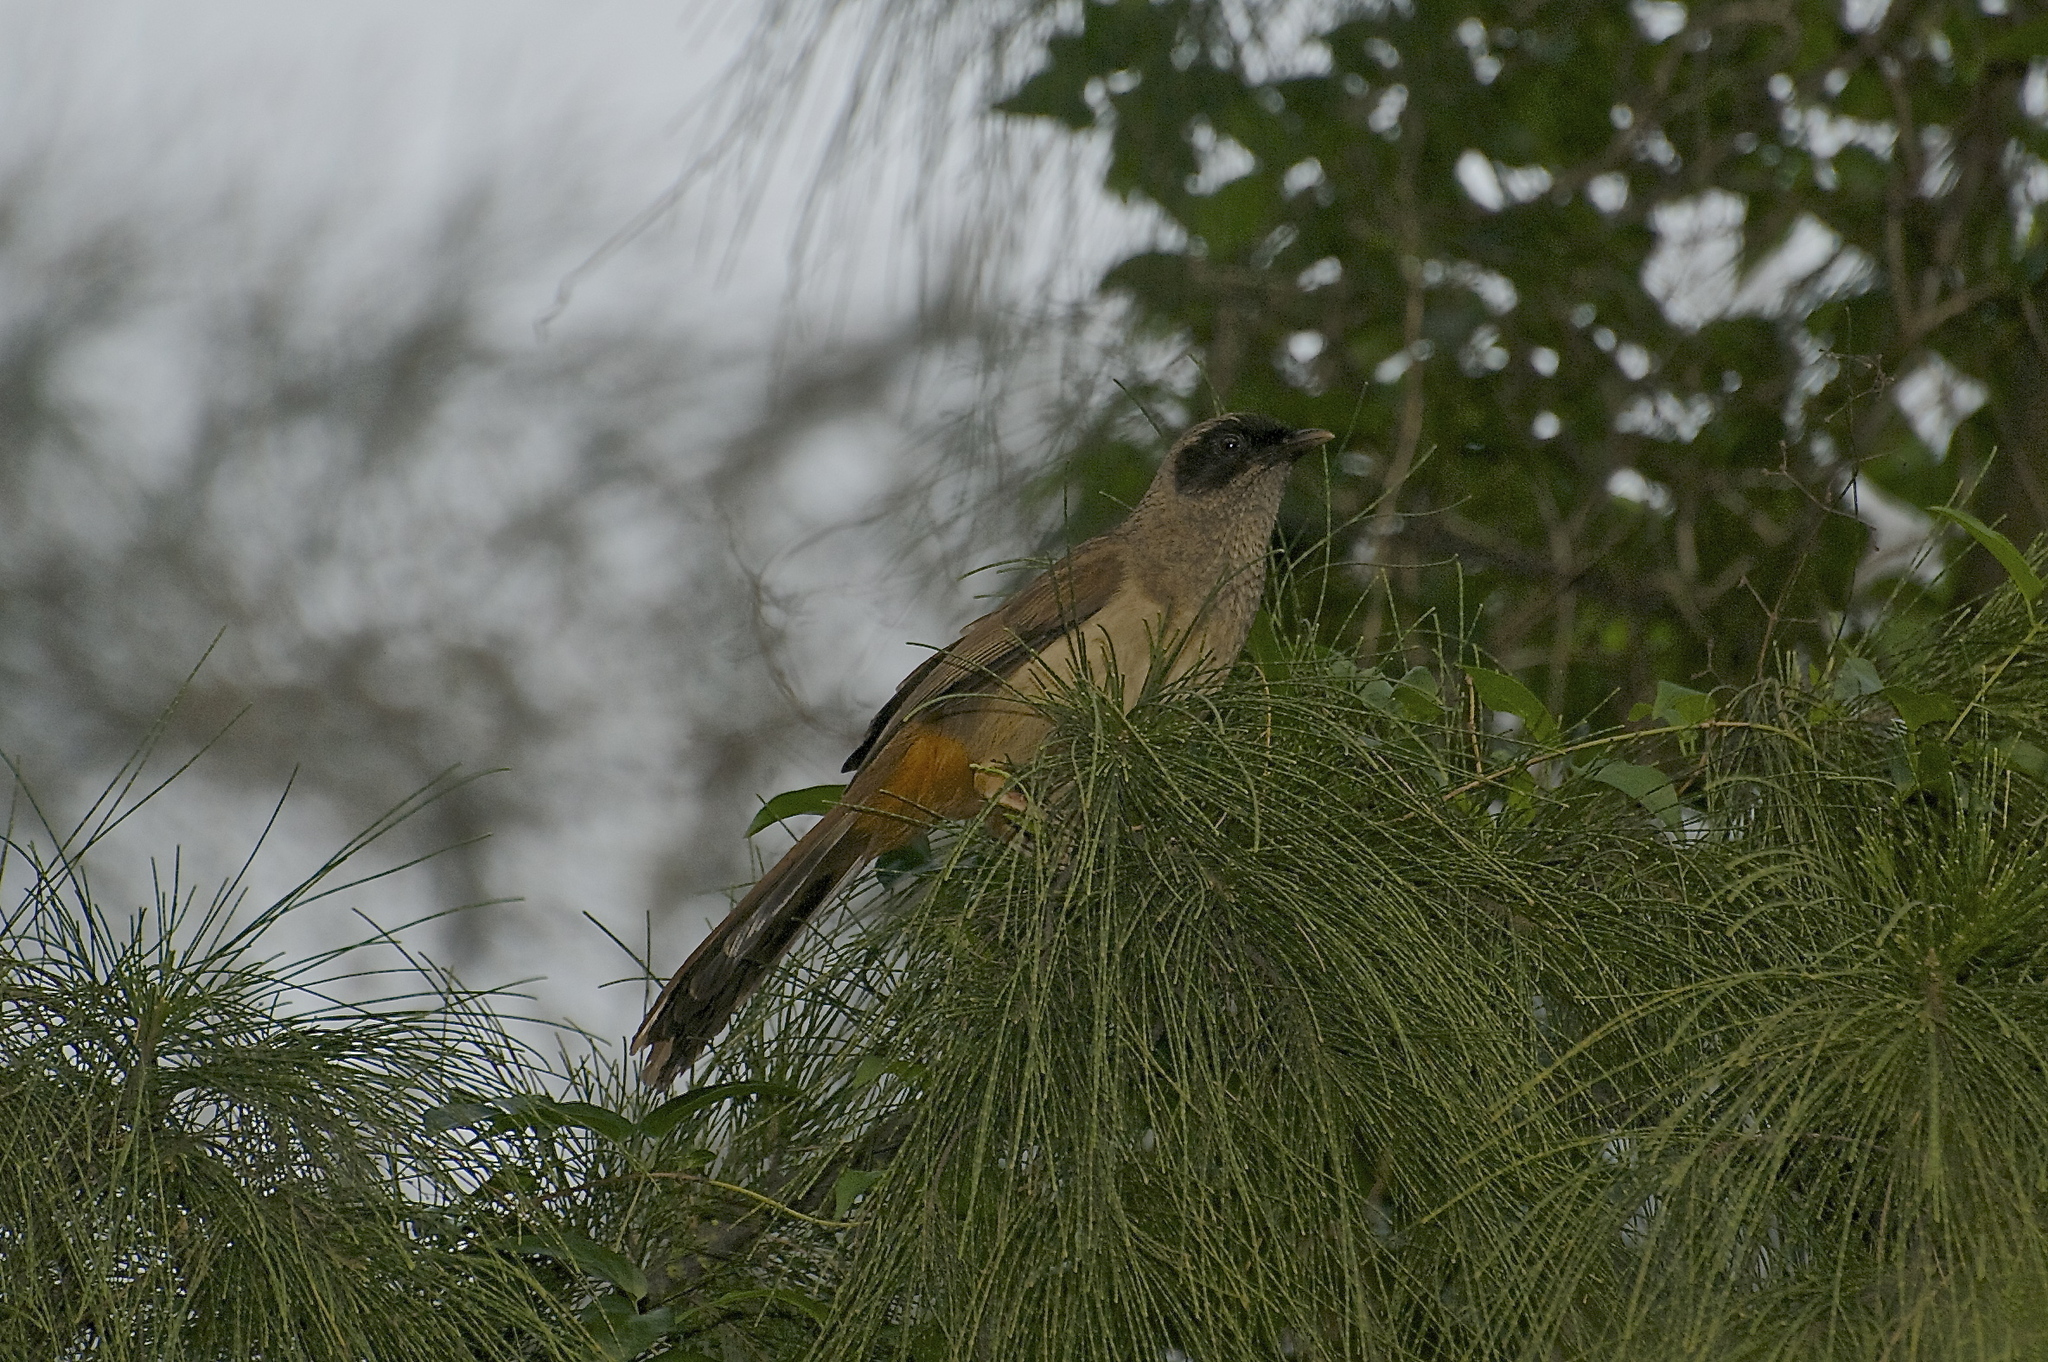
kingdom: Animalia
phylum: Chordata
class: Aves
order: Passeriformes
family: Leiothrichidae
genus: Garrulax
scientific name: Garrulax perspicillatus
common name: Masked laughingthrush
